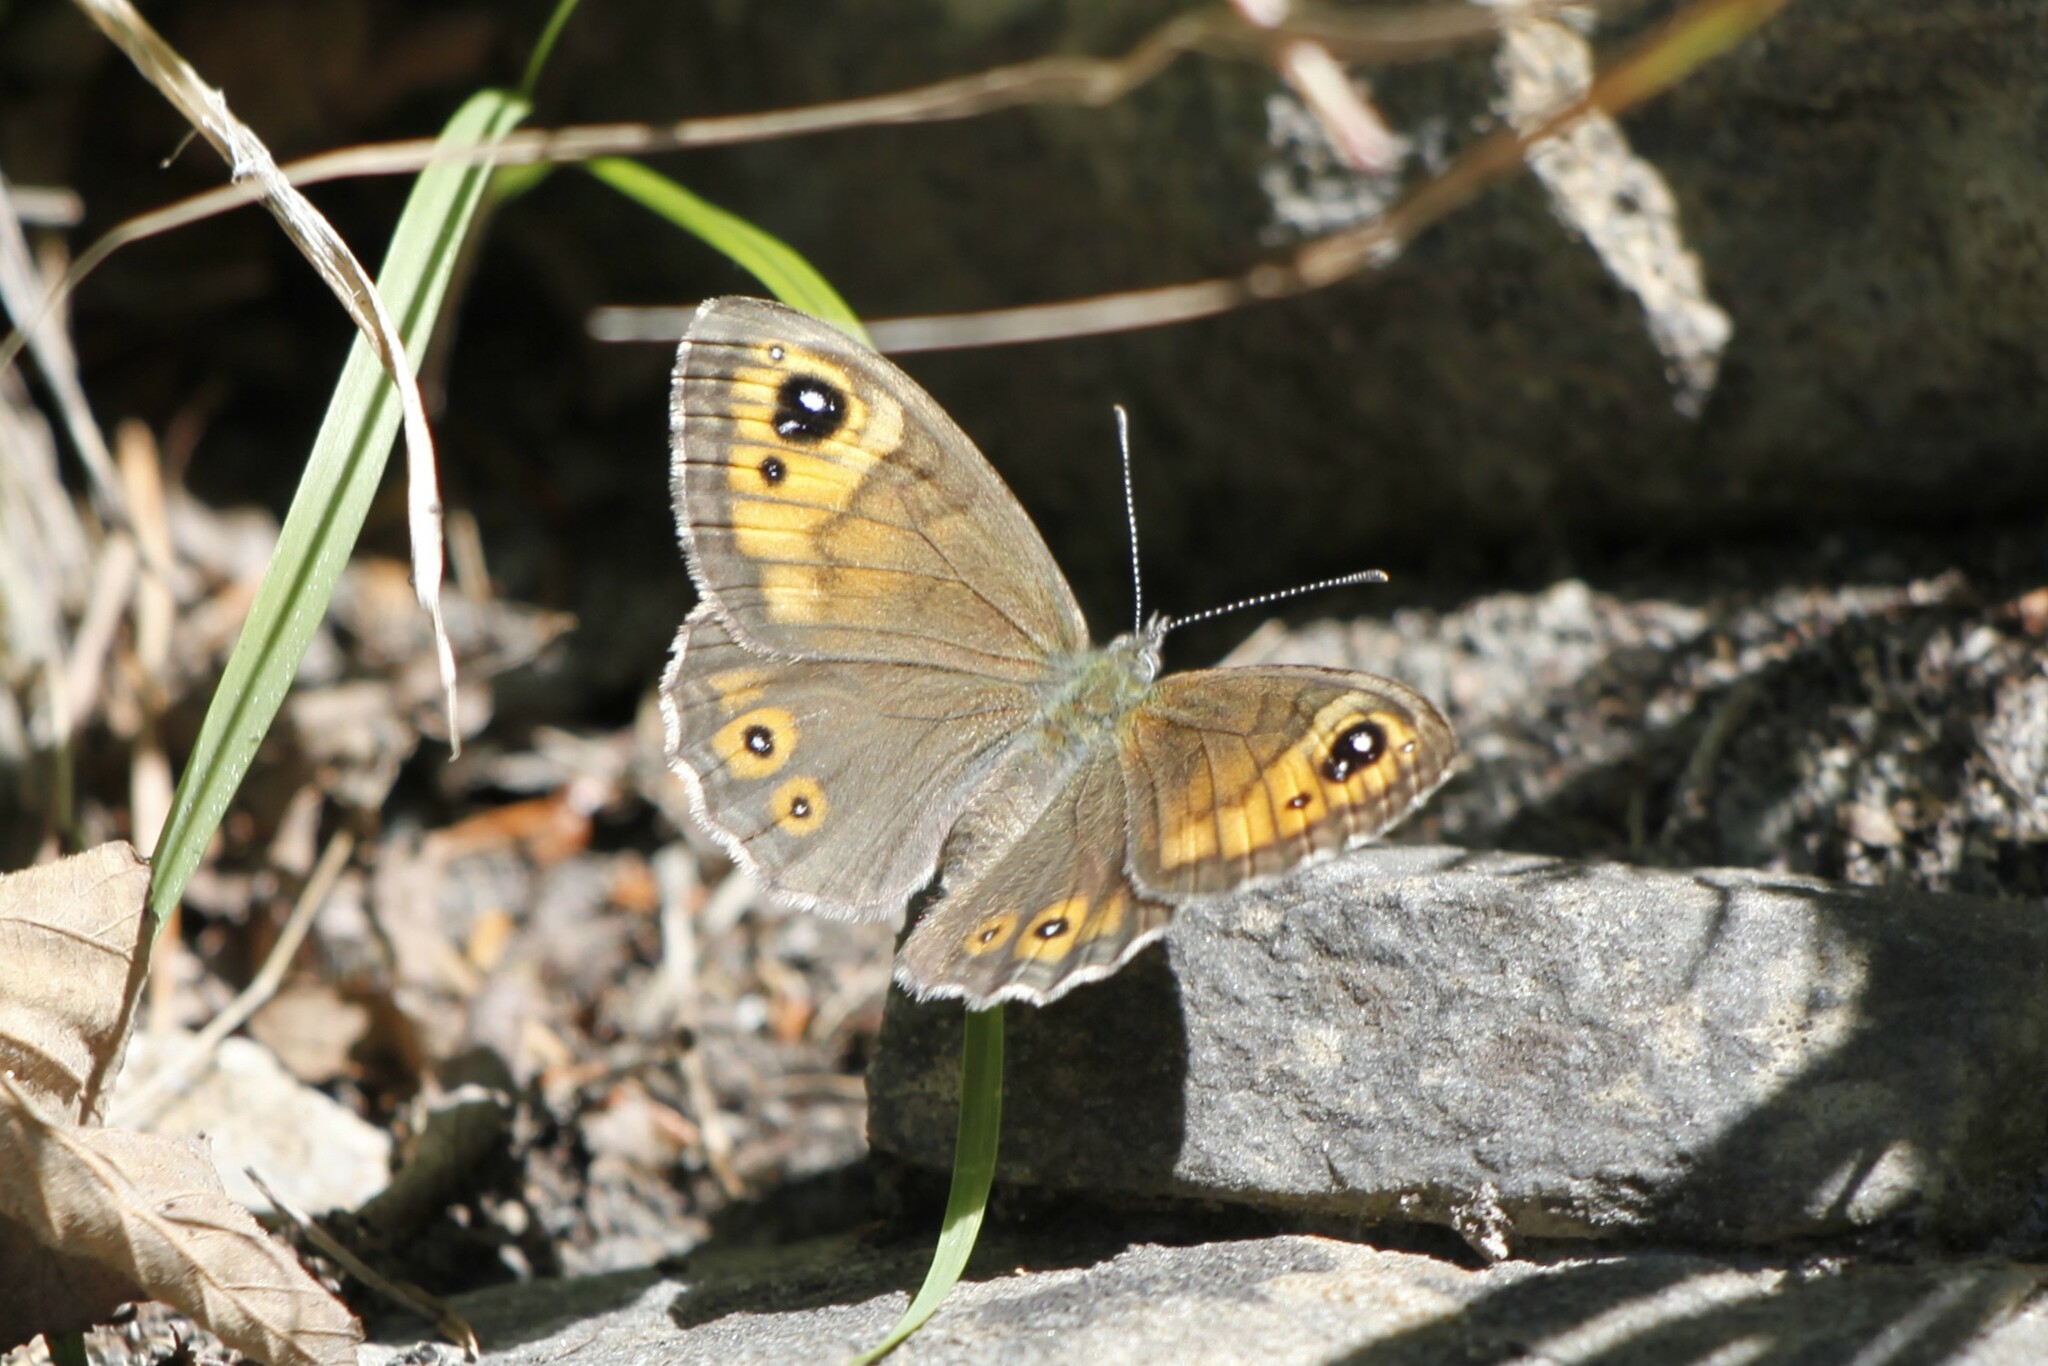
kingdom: Animalia
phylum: Arthropoda
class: Insecta
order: Lepidoptera
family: Nymphalidae
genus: Pararge
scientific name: Pararge Lasiommata maera
